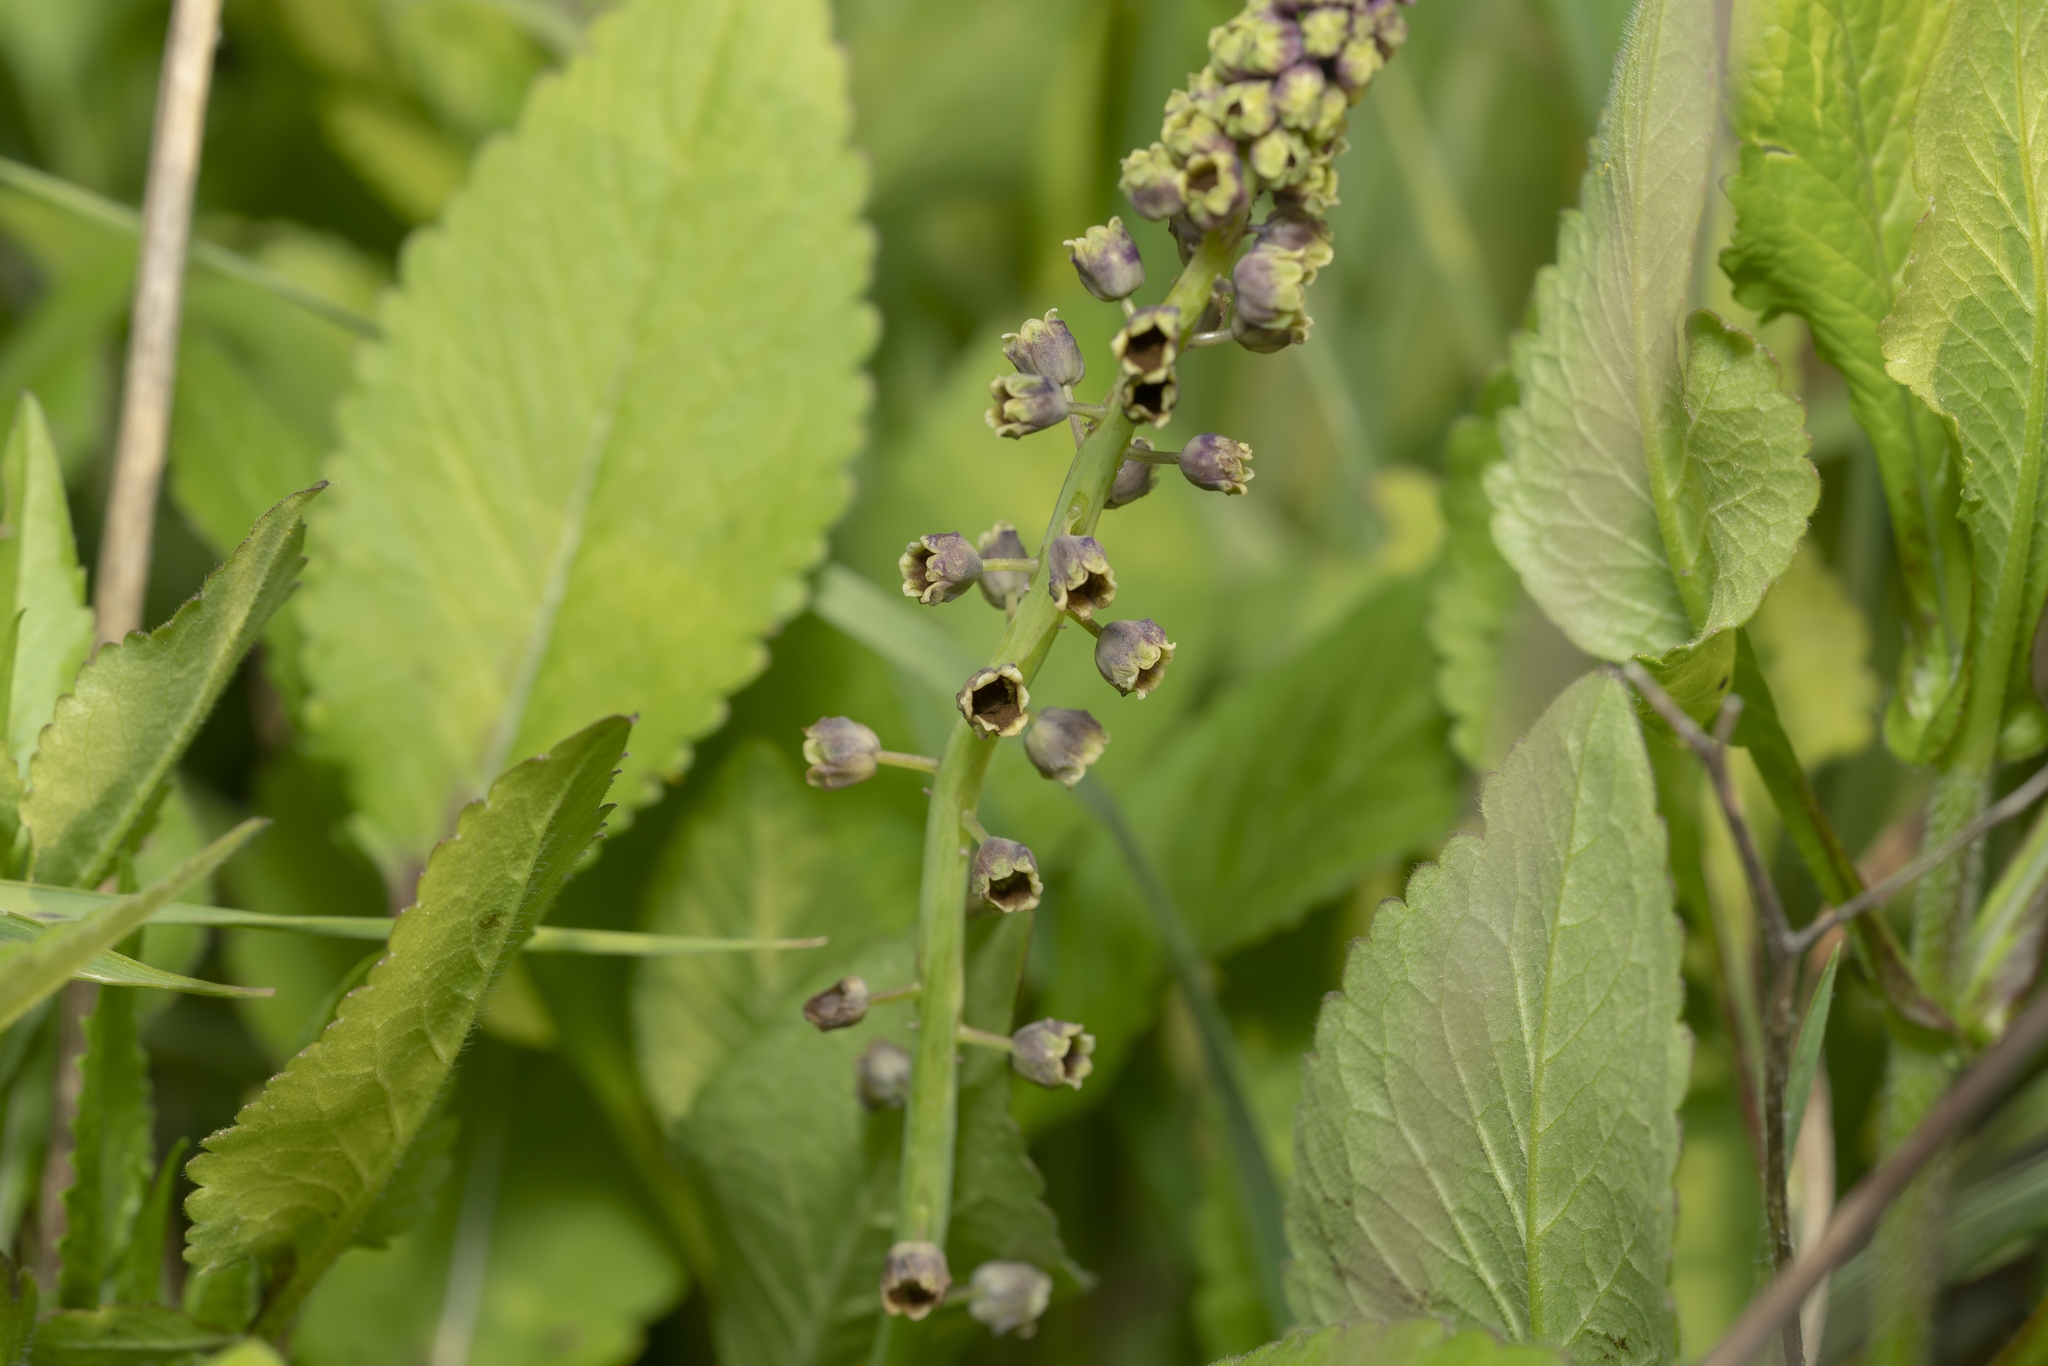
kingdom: Plantae
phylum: Tracheophyta
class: Liliopsida
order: Asparagales
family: Asparagaceae
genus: Muscari
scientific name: Muscari comosum
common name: Tassel hyacinth
